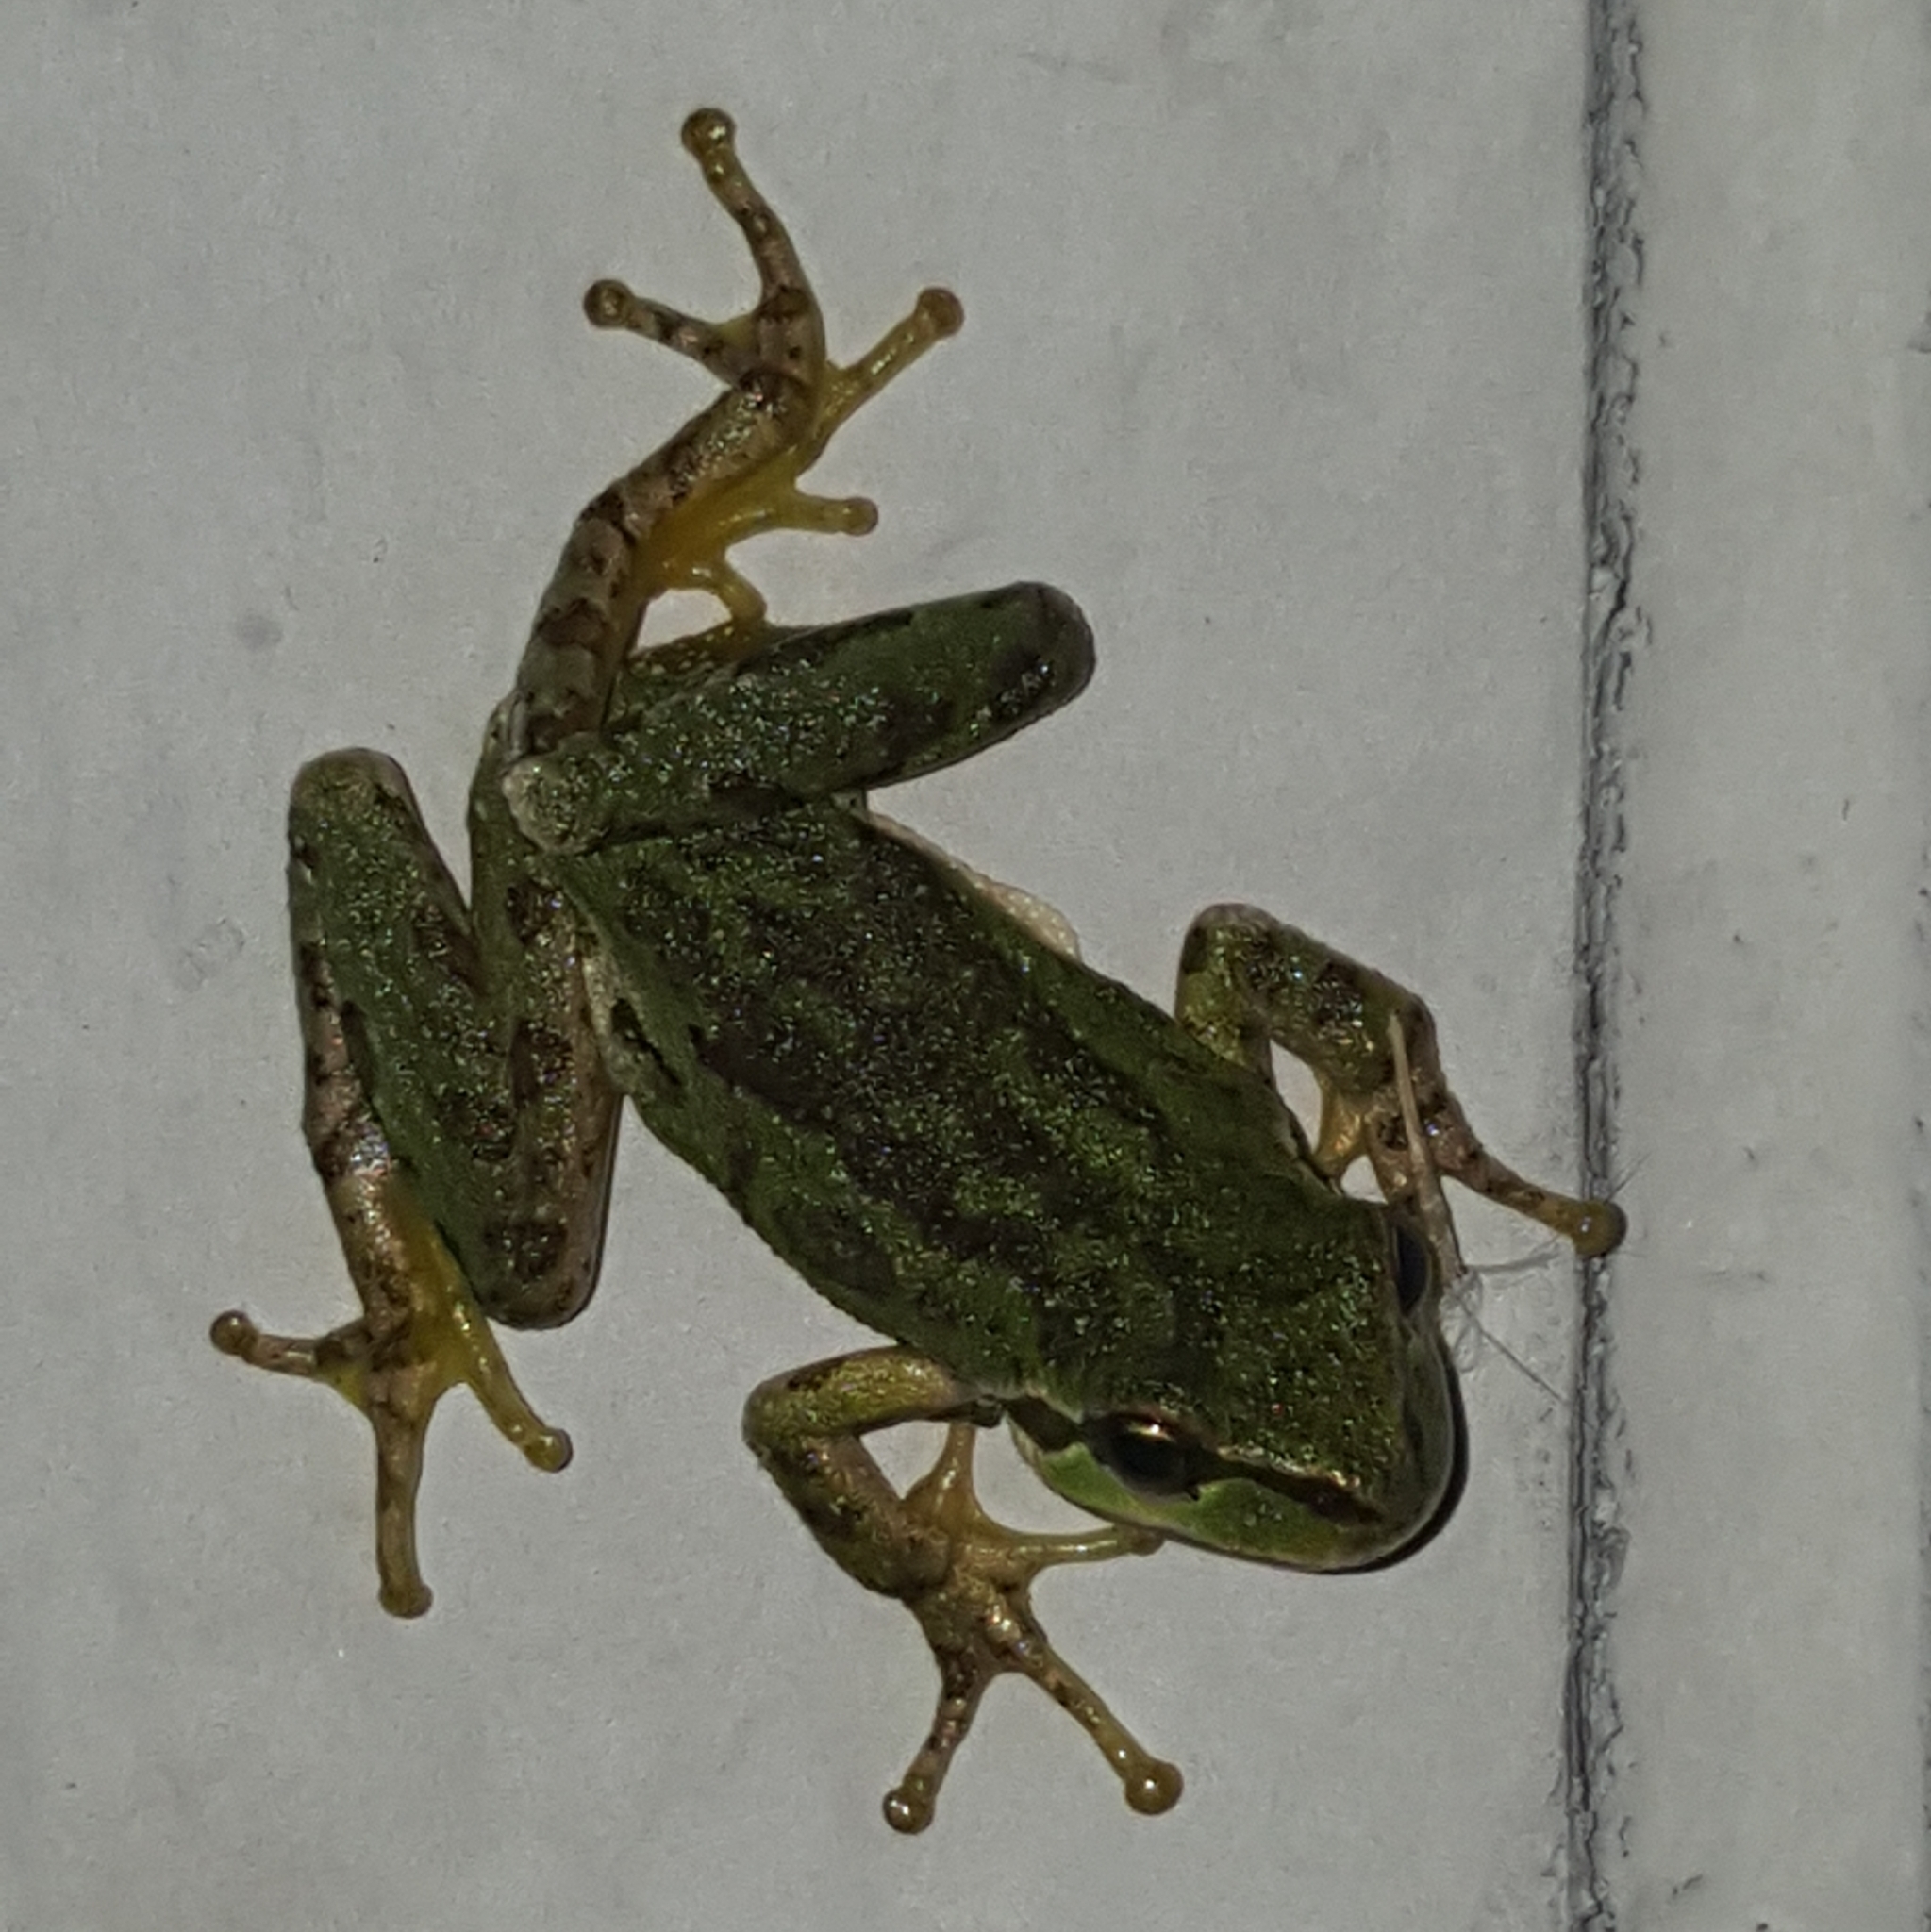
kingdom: Animalia
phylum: Chordata
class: Amphibia
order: Anura
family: Hylidae
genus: Pseudacris
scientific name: Pseudacris regilla
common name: Pacific chorus frog
